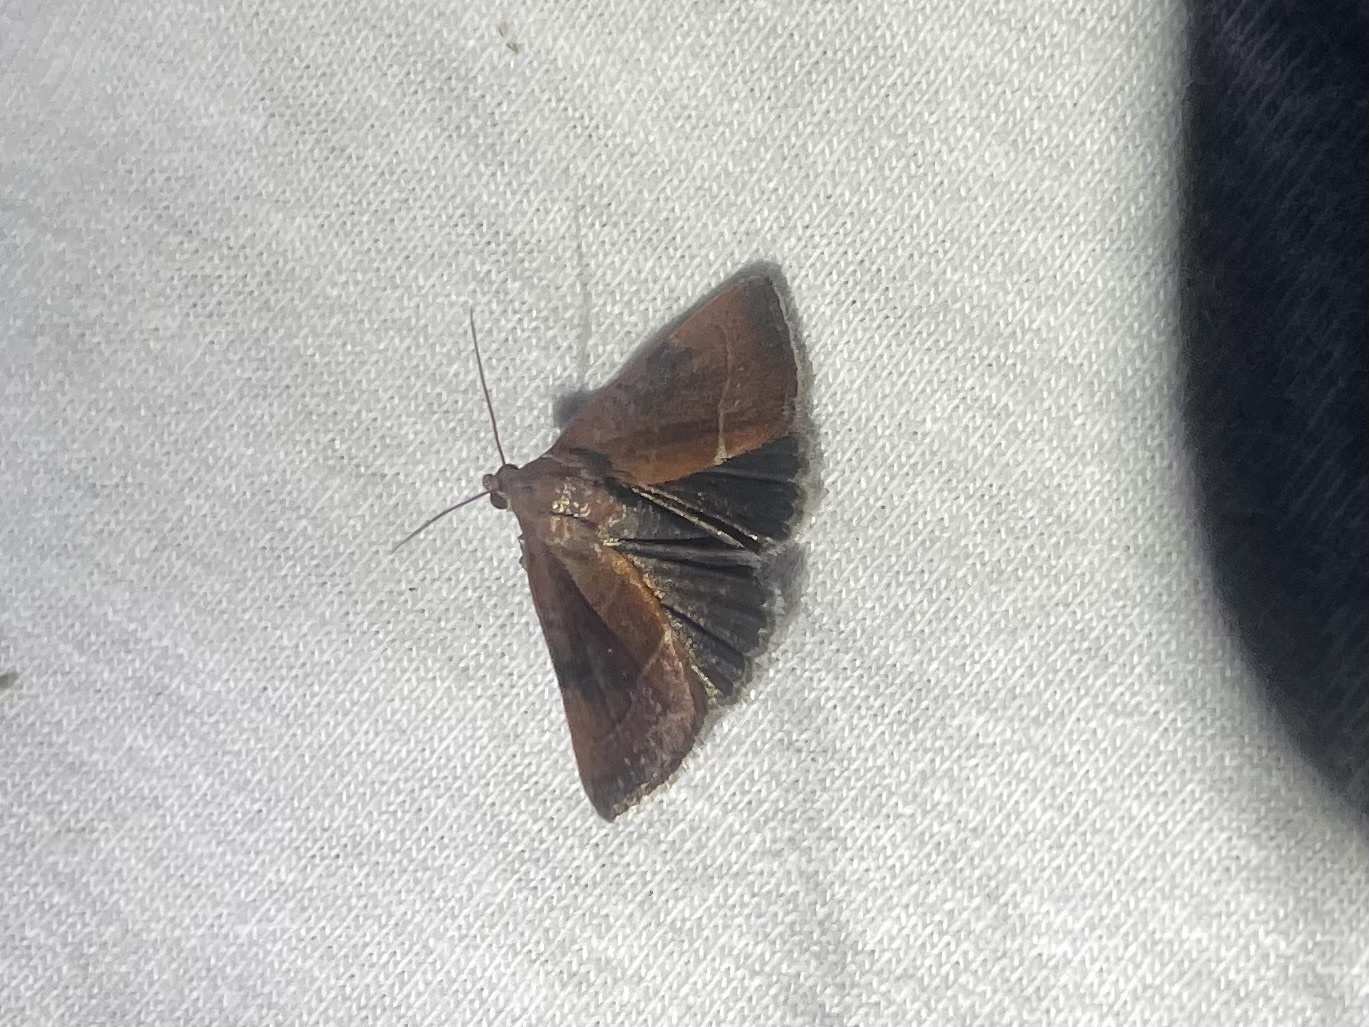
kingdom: Animalia
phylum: Arthropoda
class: Insecta
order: Lepidoptera
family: Noctuidae
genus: Galgula
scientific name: Galgula partita
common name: Wedgeling
